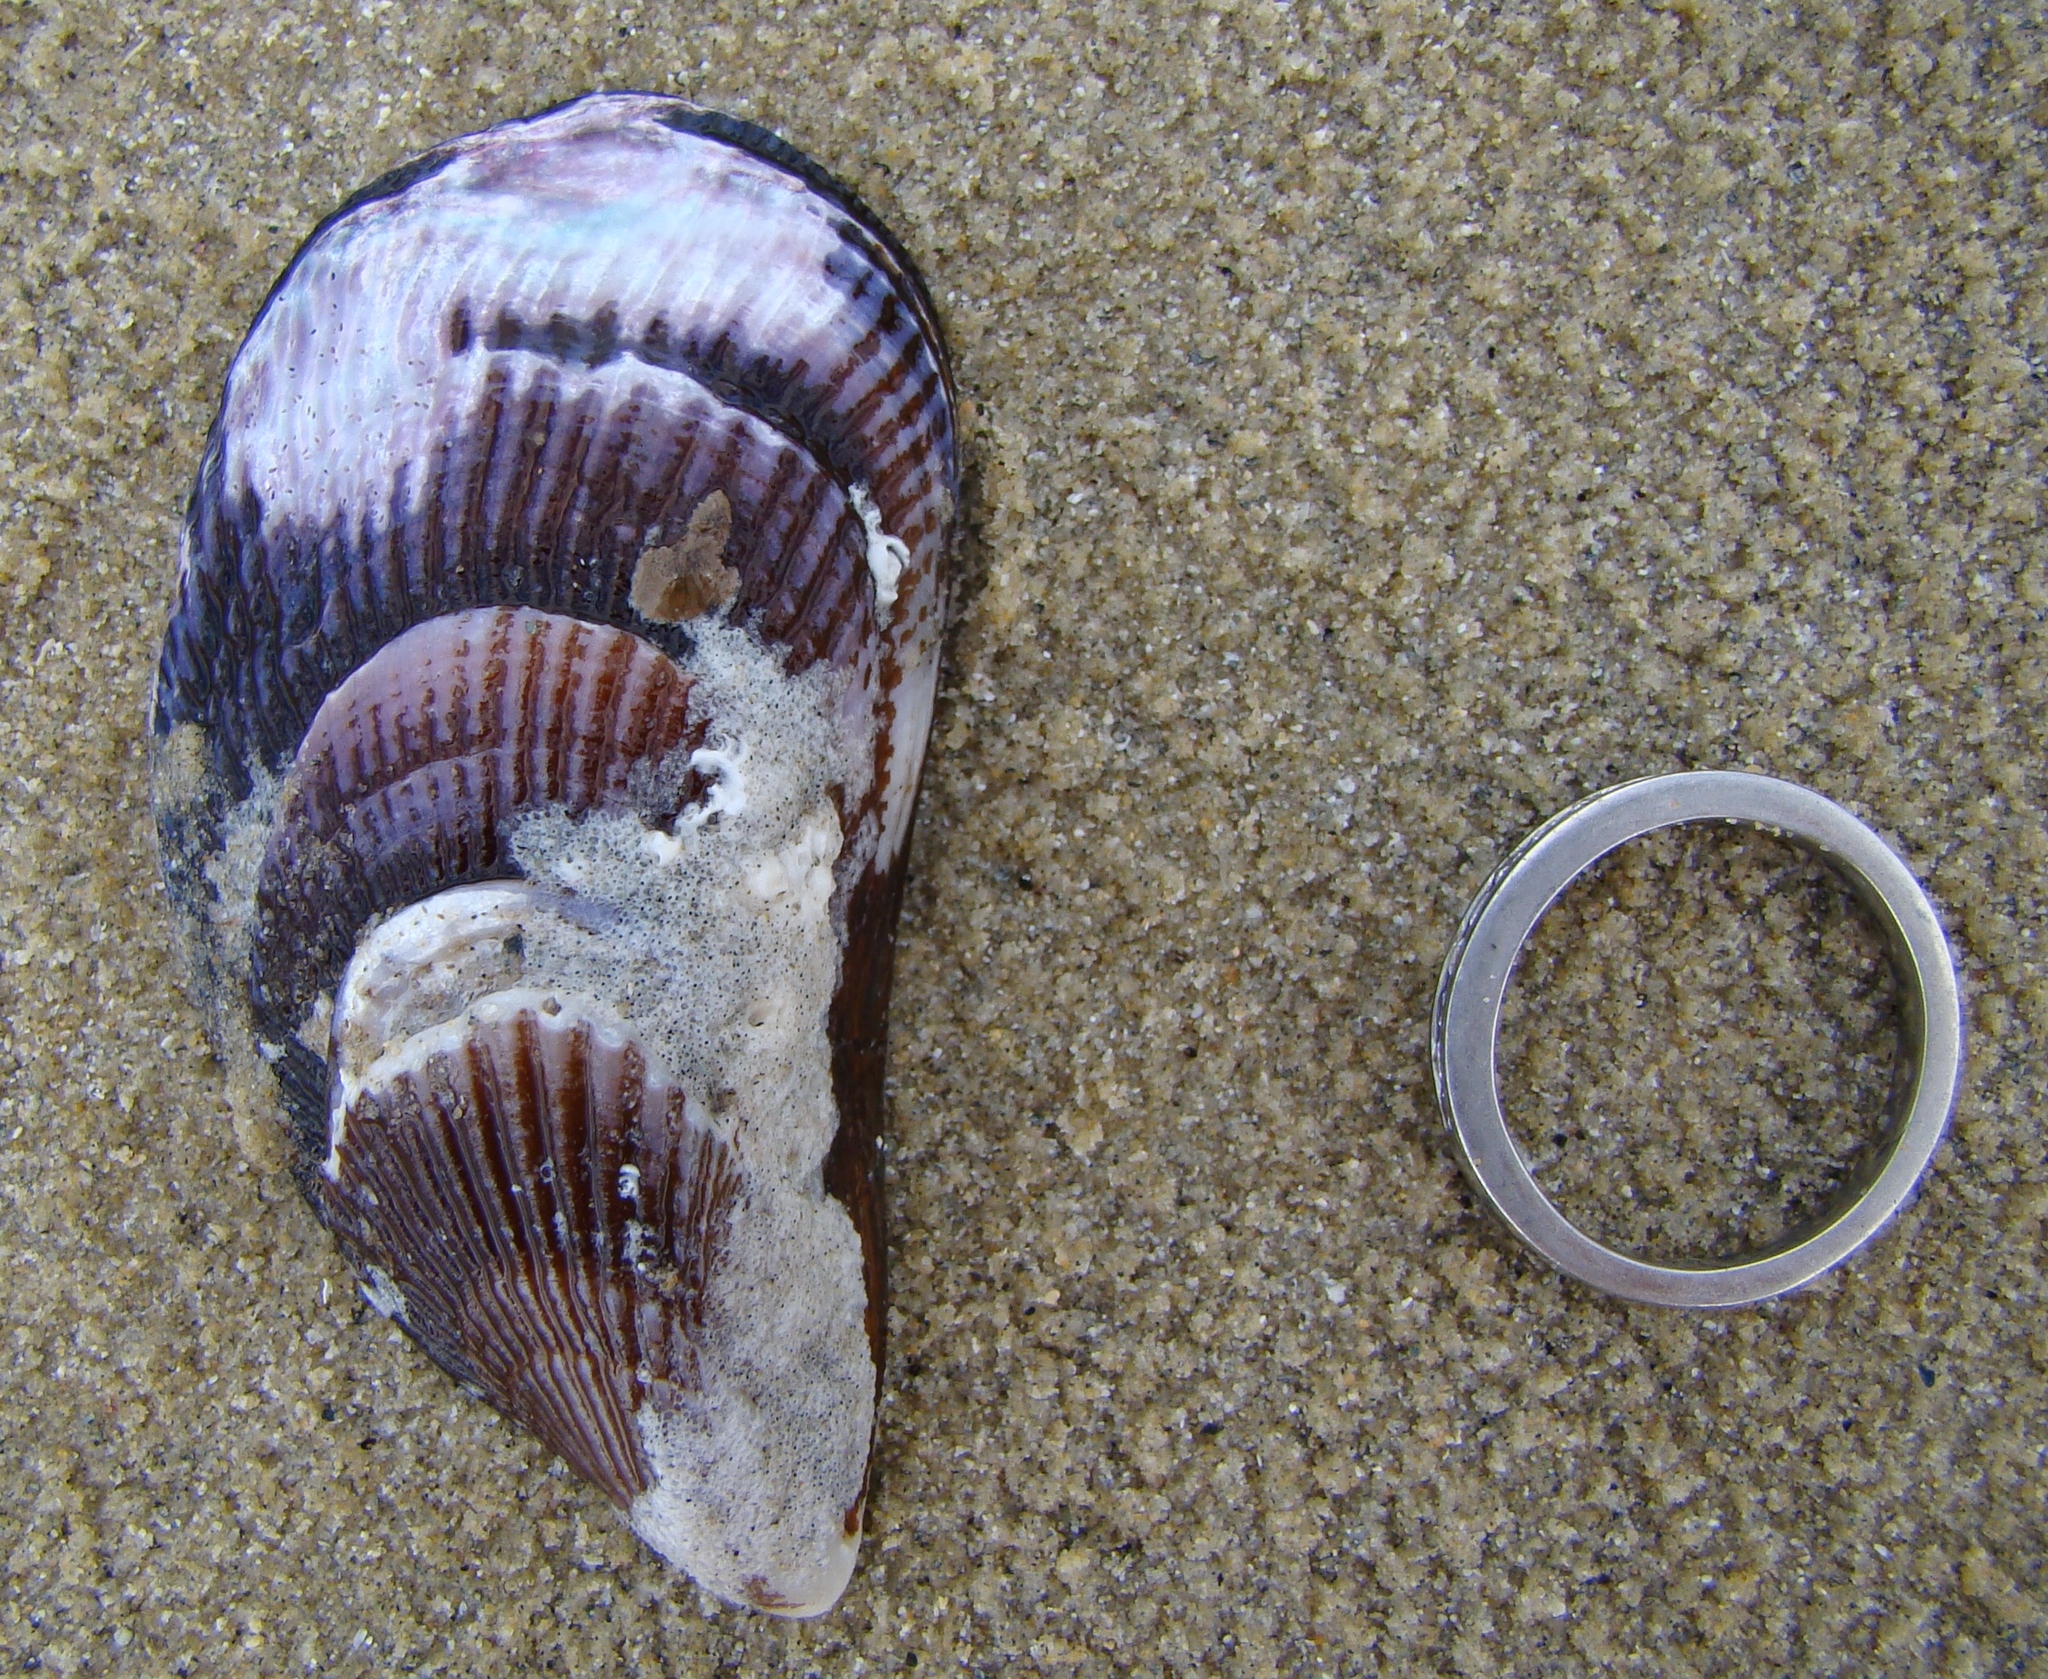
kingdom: Animalia
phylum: Mollusca
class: Bivalvia
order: Mytilida
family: Mytilidae
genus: Aulacomya
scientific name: Aulacomya maoriana
